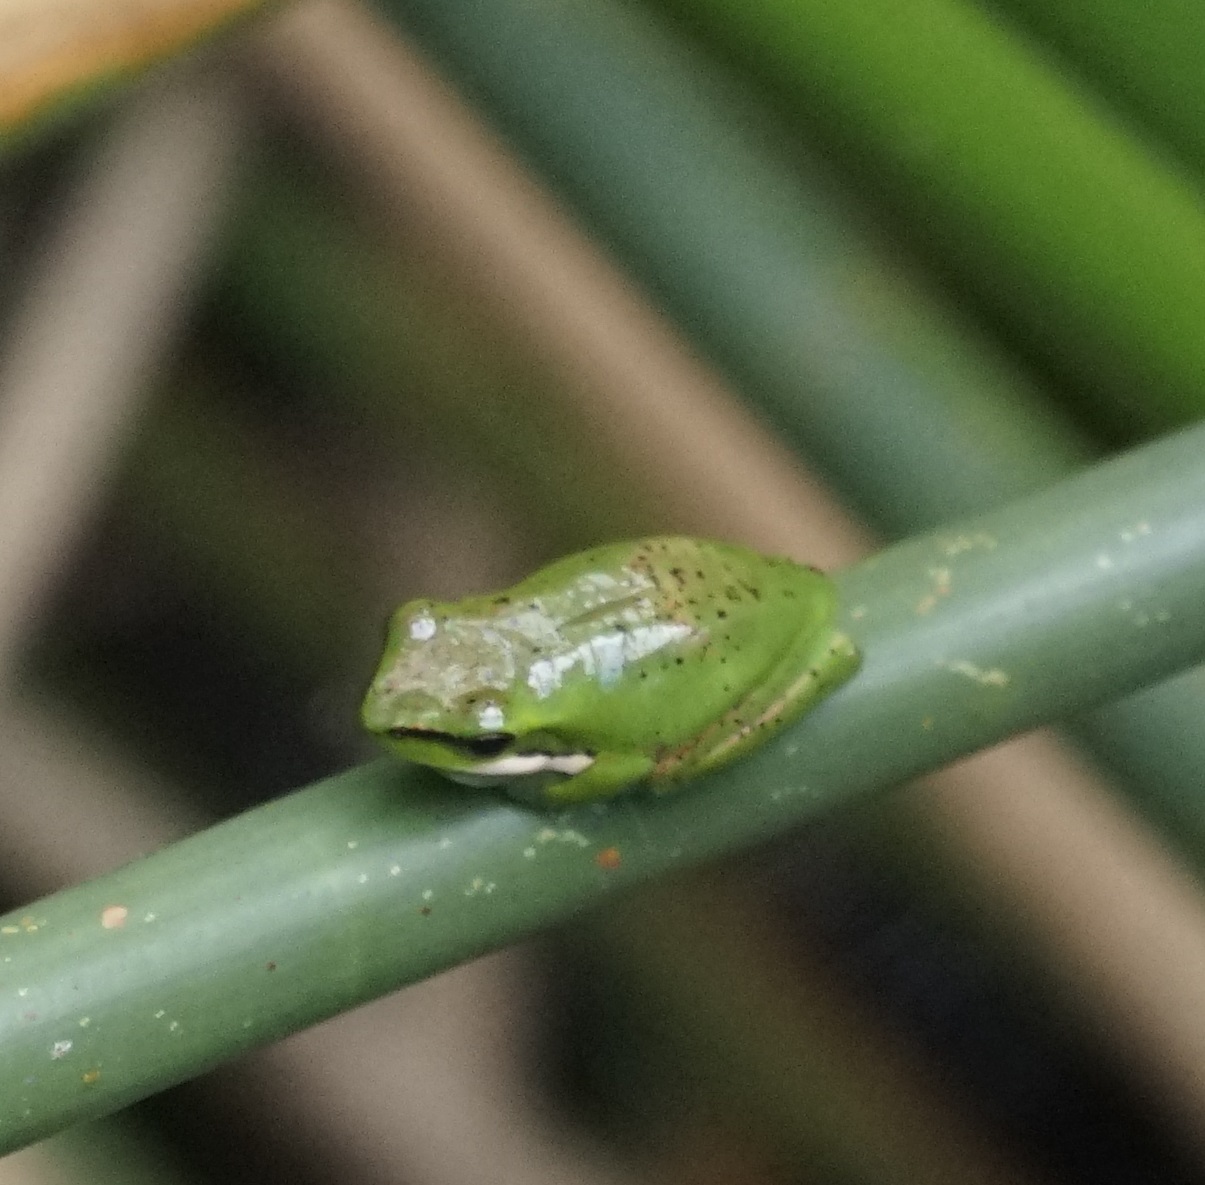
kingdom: Animalia
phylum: Chordata
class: Amphibia
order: Anura
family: Pelodryadidae
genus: Litoria
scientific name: Litoria fallax
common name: Eastern dwarf treefrog
